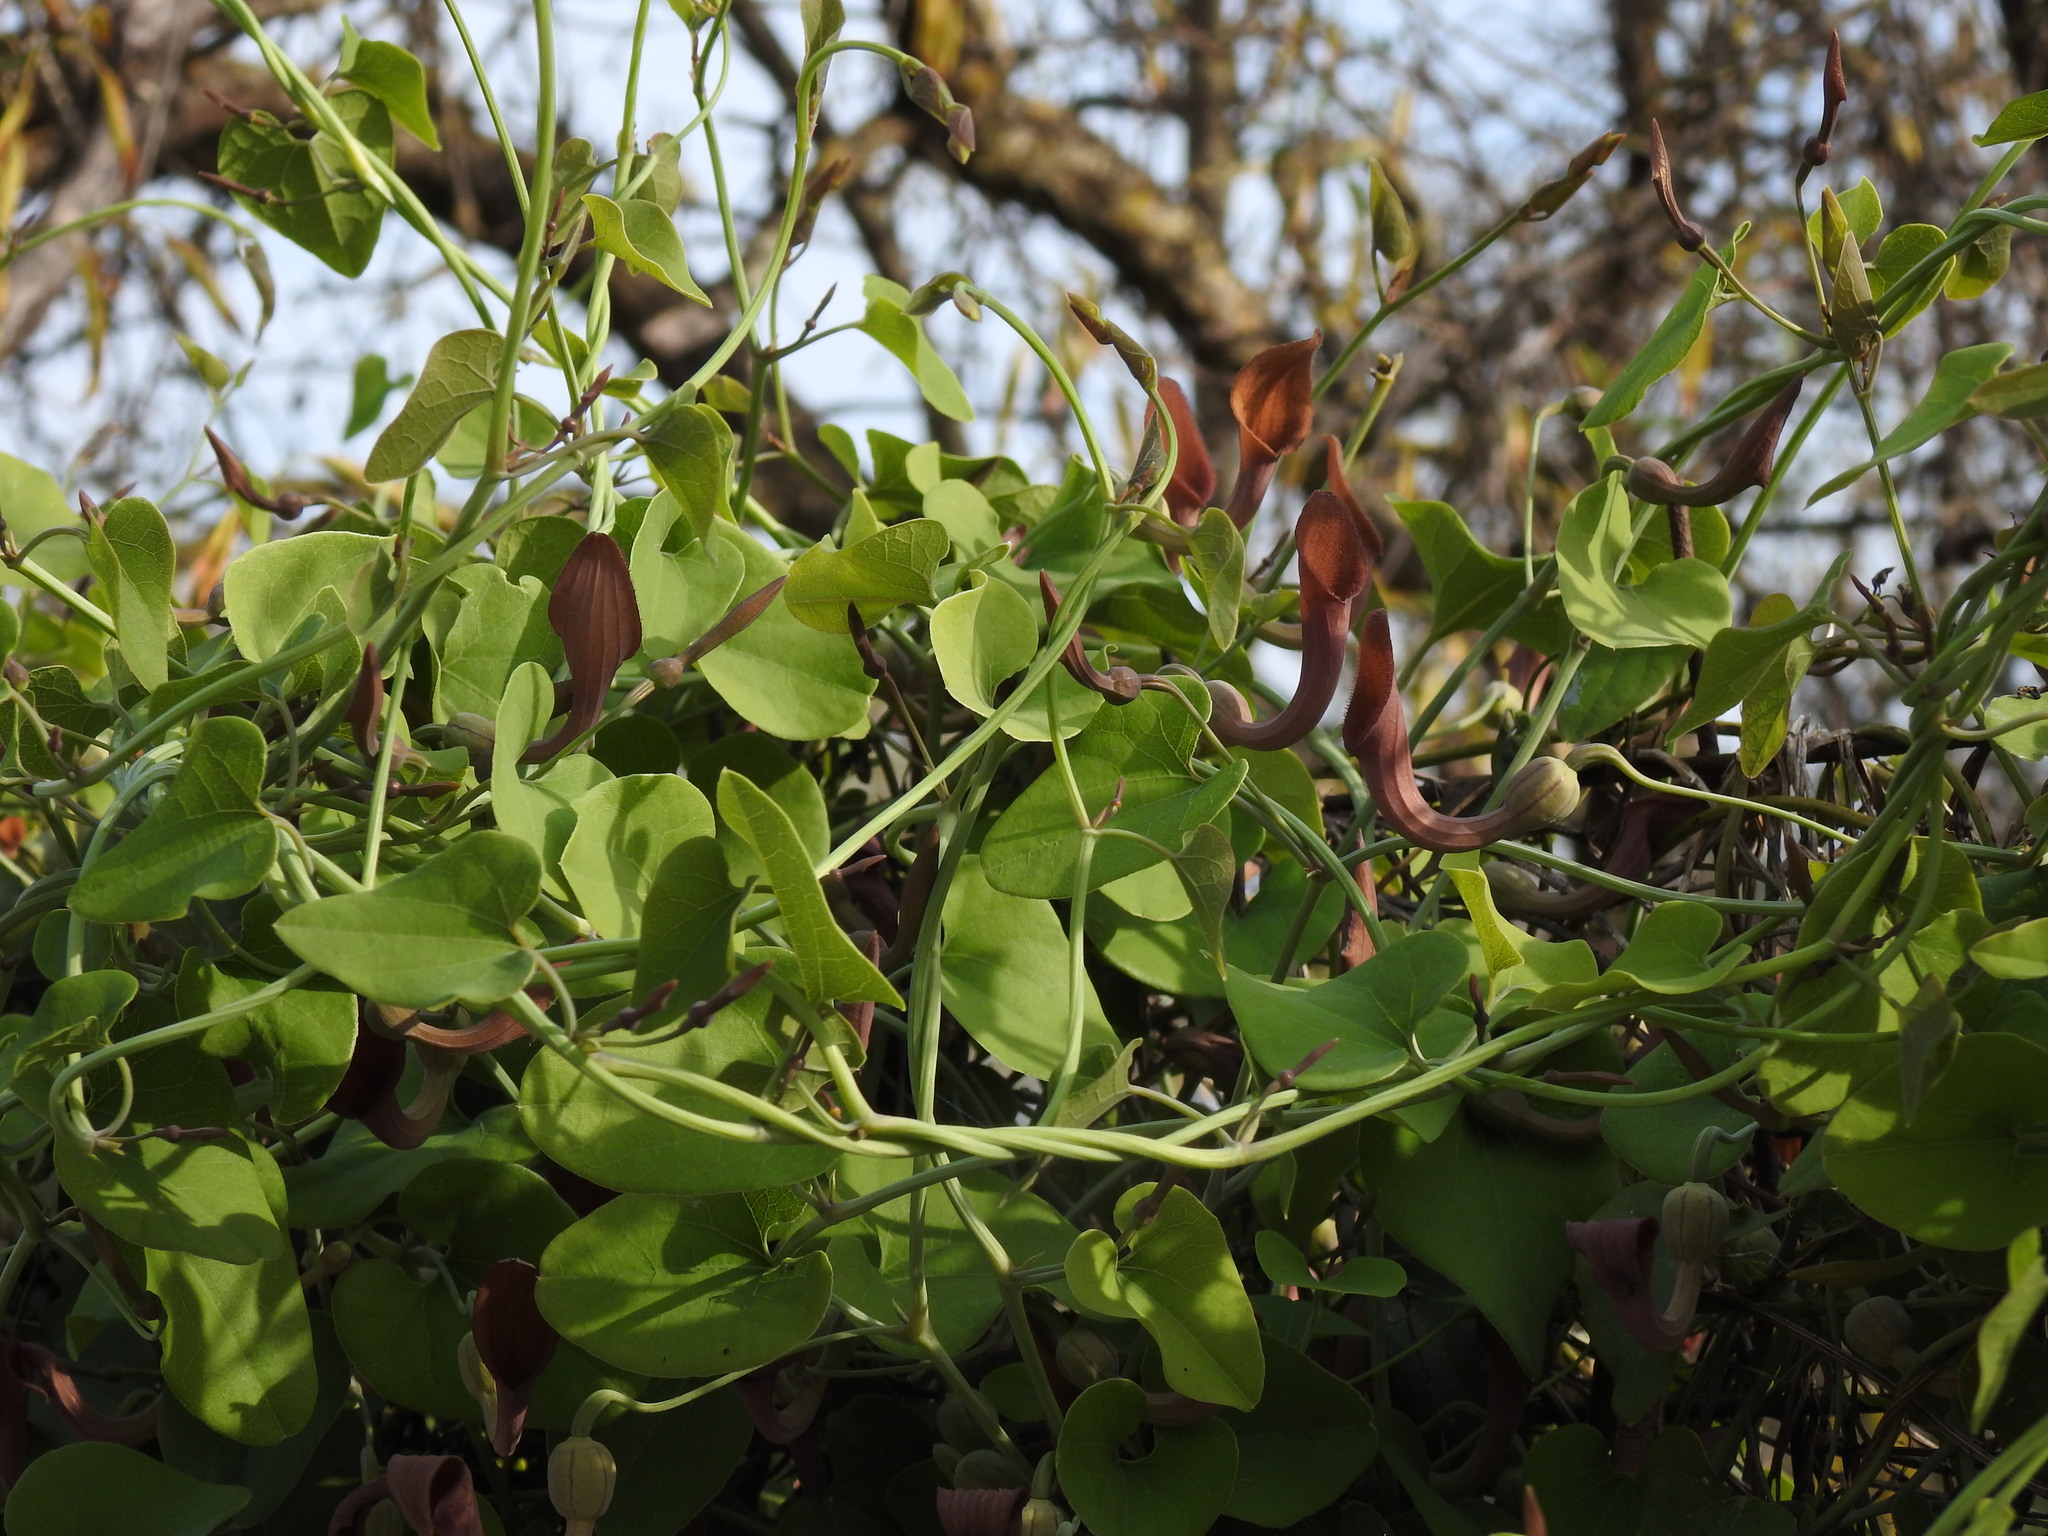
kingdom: Plantae
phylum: Tracheophyta
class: Magnoliopsida
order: Piperales
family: Aristolochiaceae
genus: Aristolochia
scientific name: Aristolochia baetica
